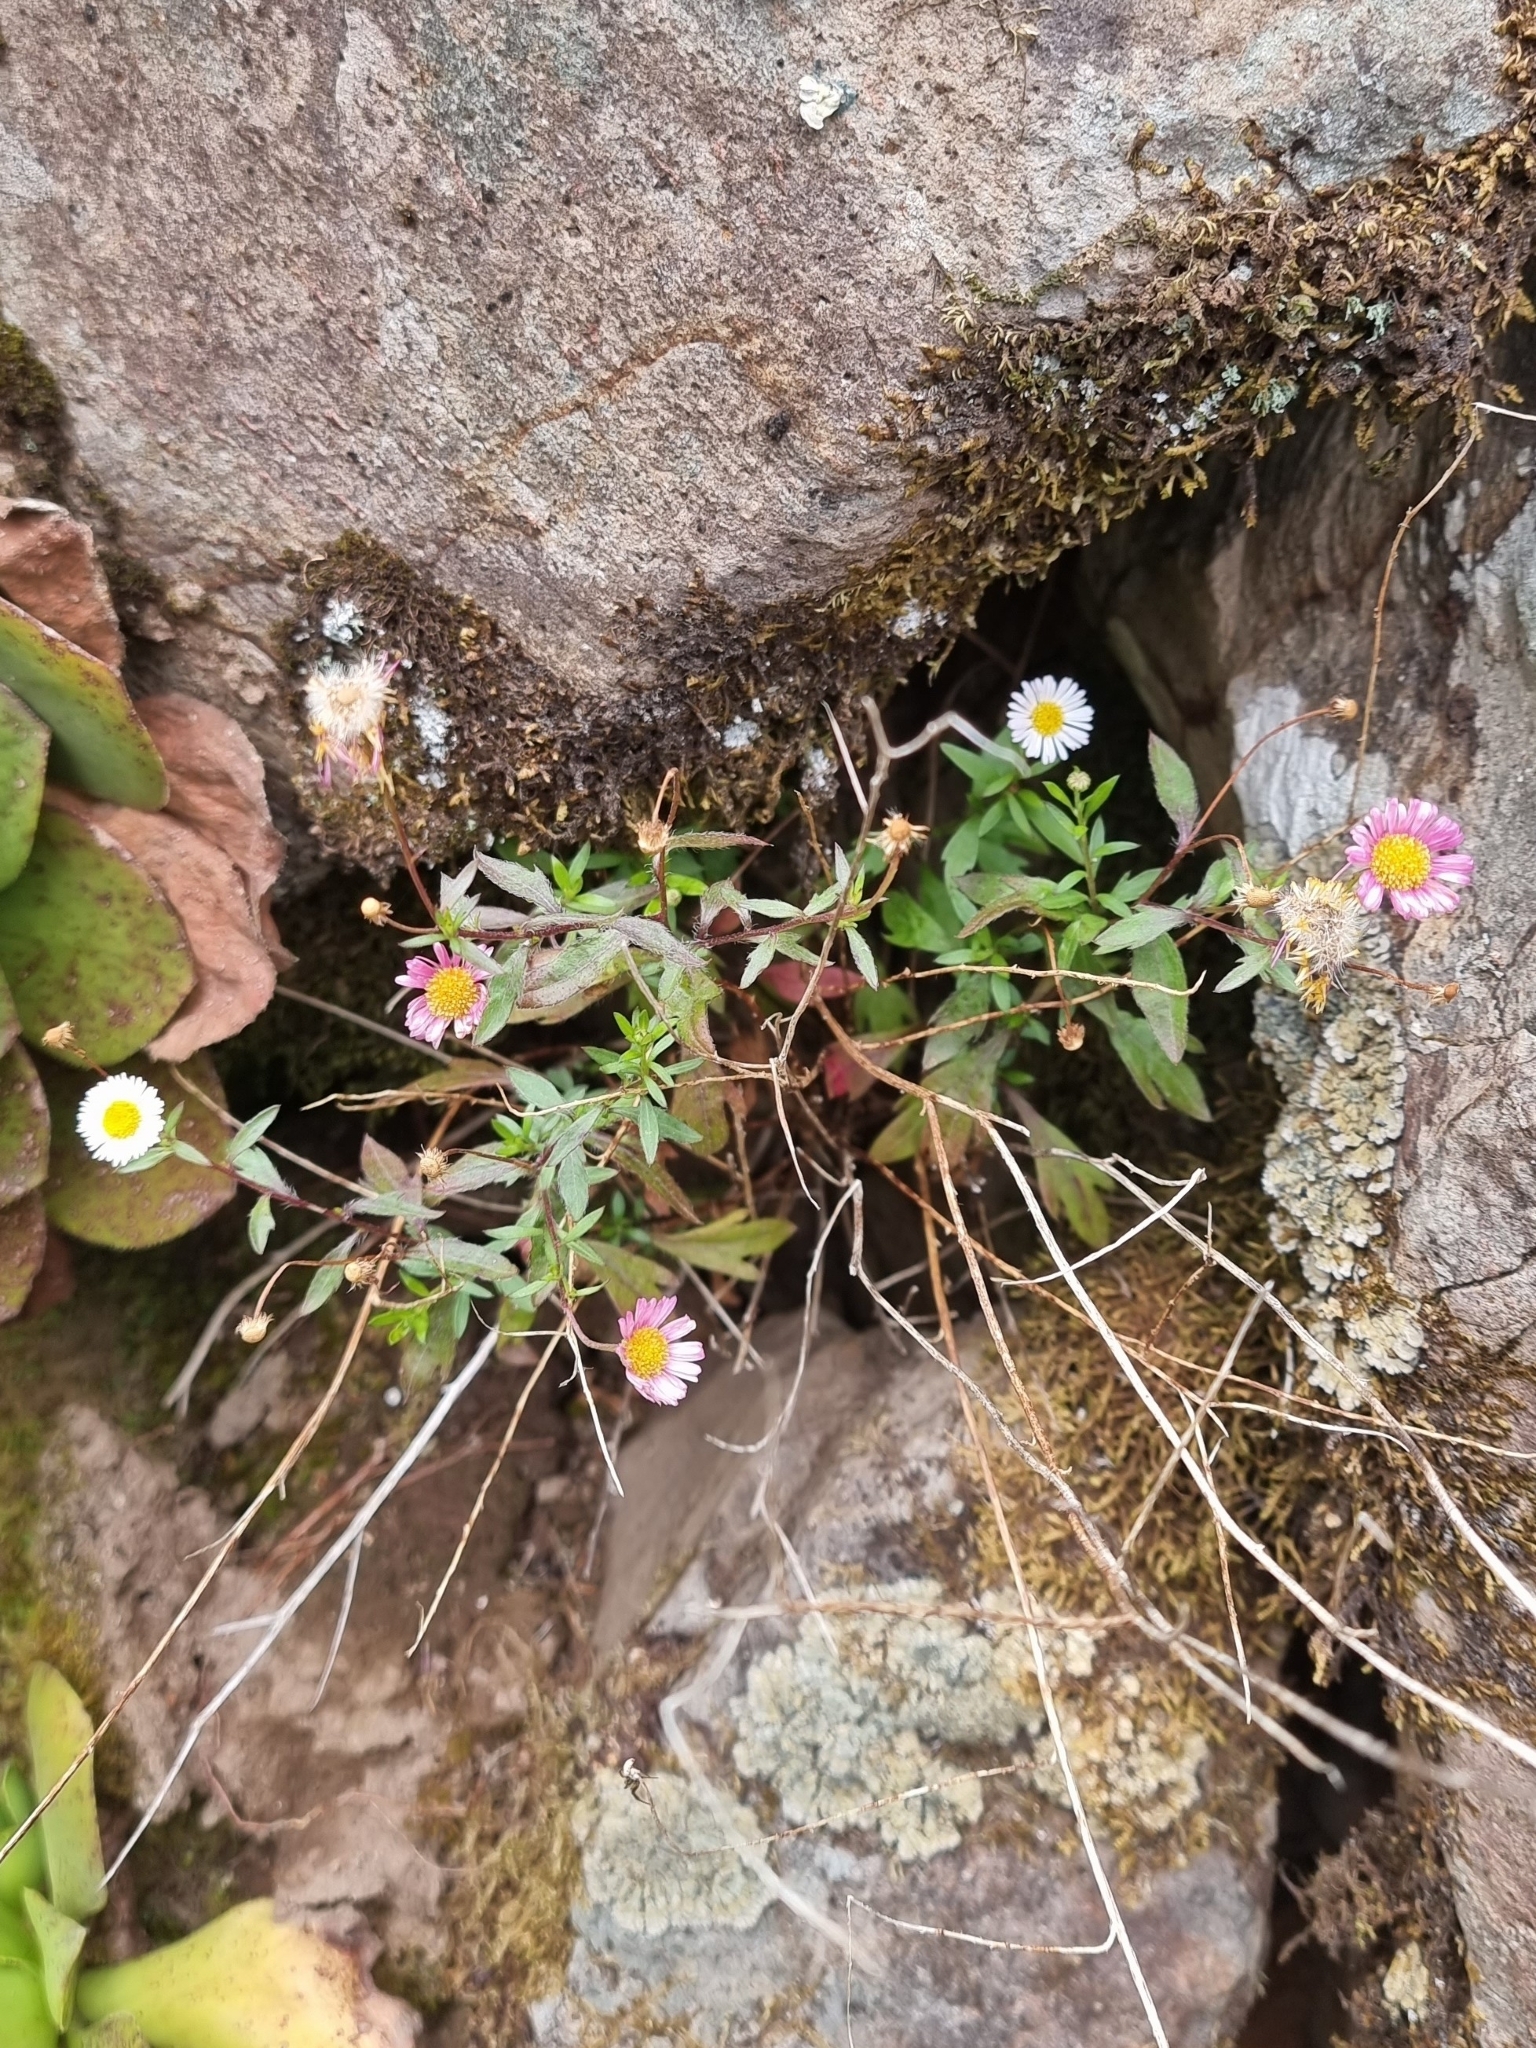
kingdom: Plantae
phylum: Tracheophyta
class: Magnoliopsida
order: Asterales
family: Asteraceae
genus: Erigeron
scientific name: Erigeron karvinskianus
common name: Mexican fleabane
